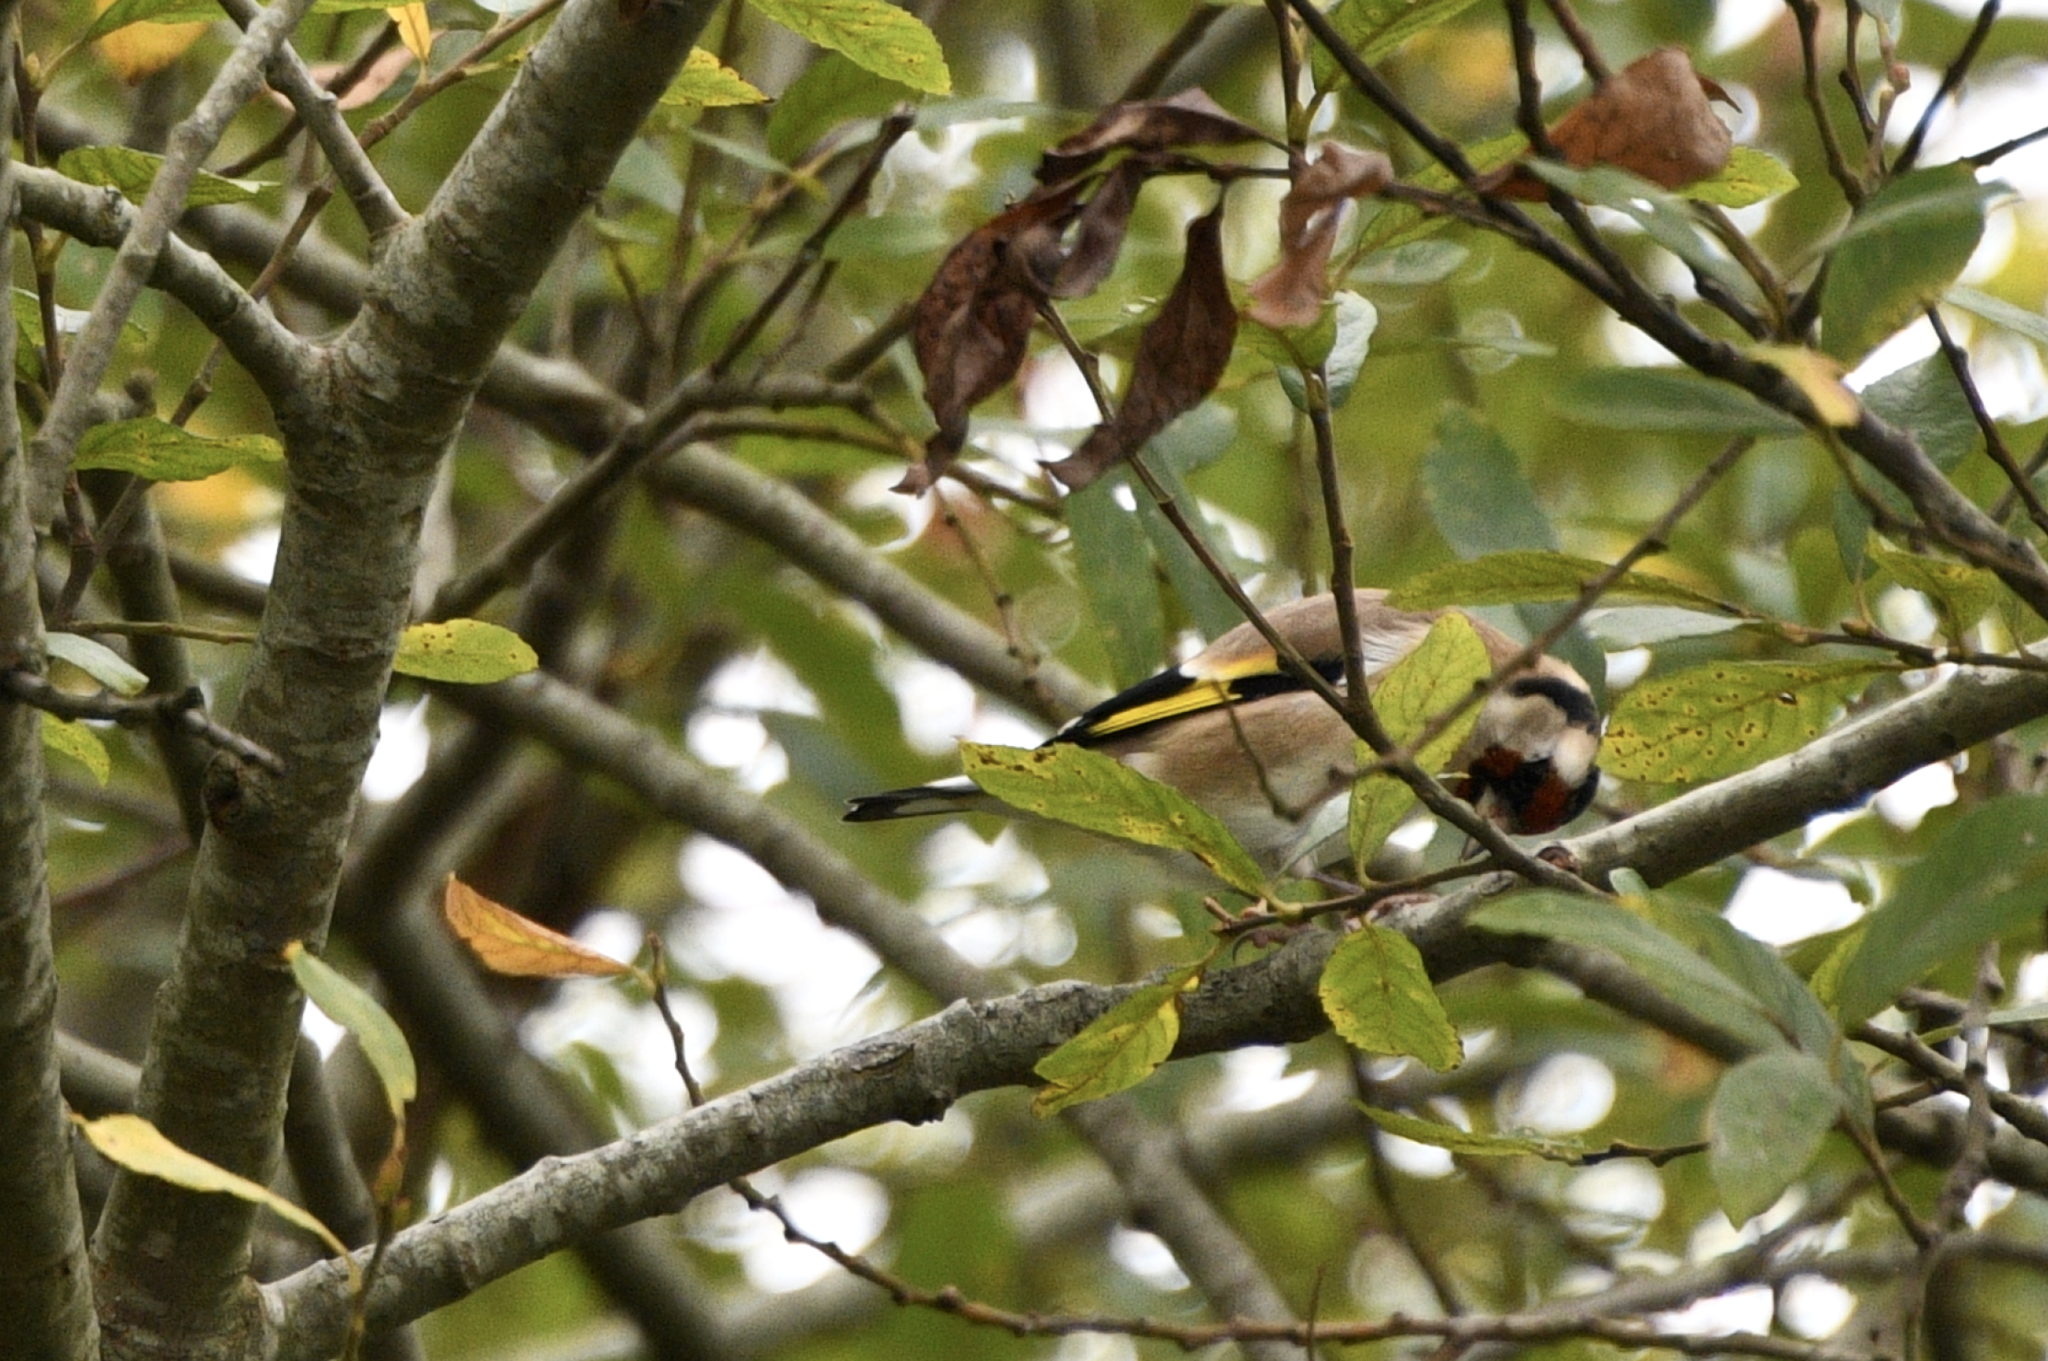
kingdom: Animalia
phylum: Chordata
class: Aves
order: Passeriformes
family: Fringillidae
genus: Carduelis
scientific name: Carduelis carduelis
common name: European goldfinch
